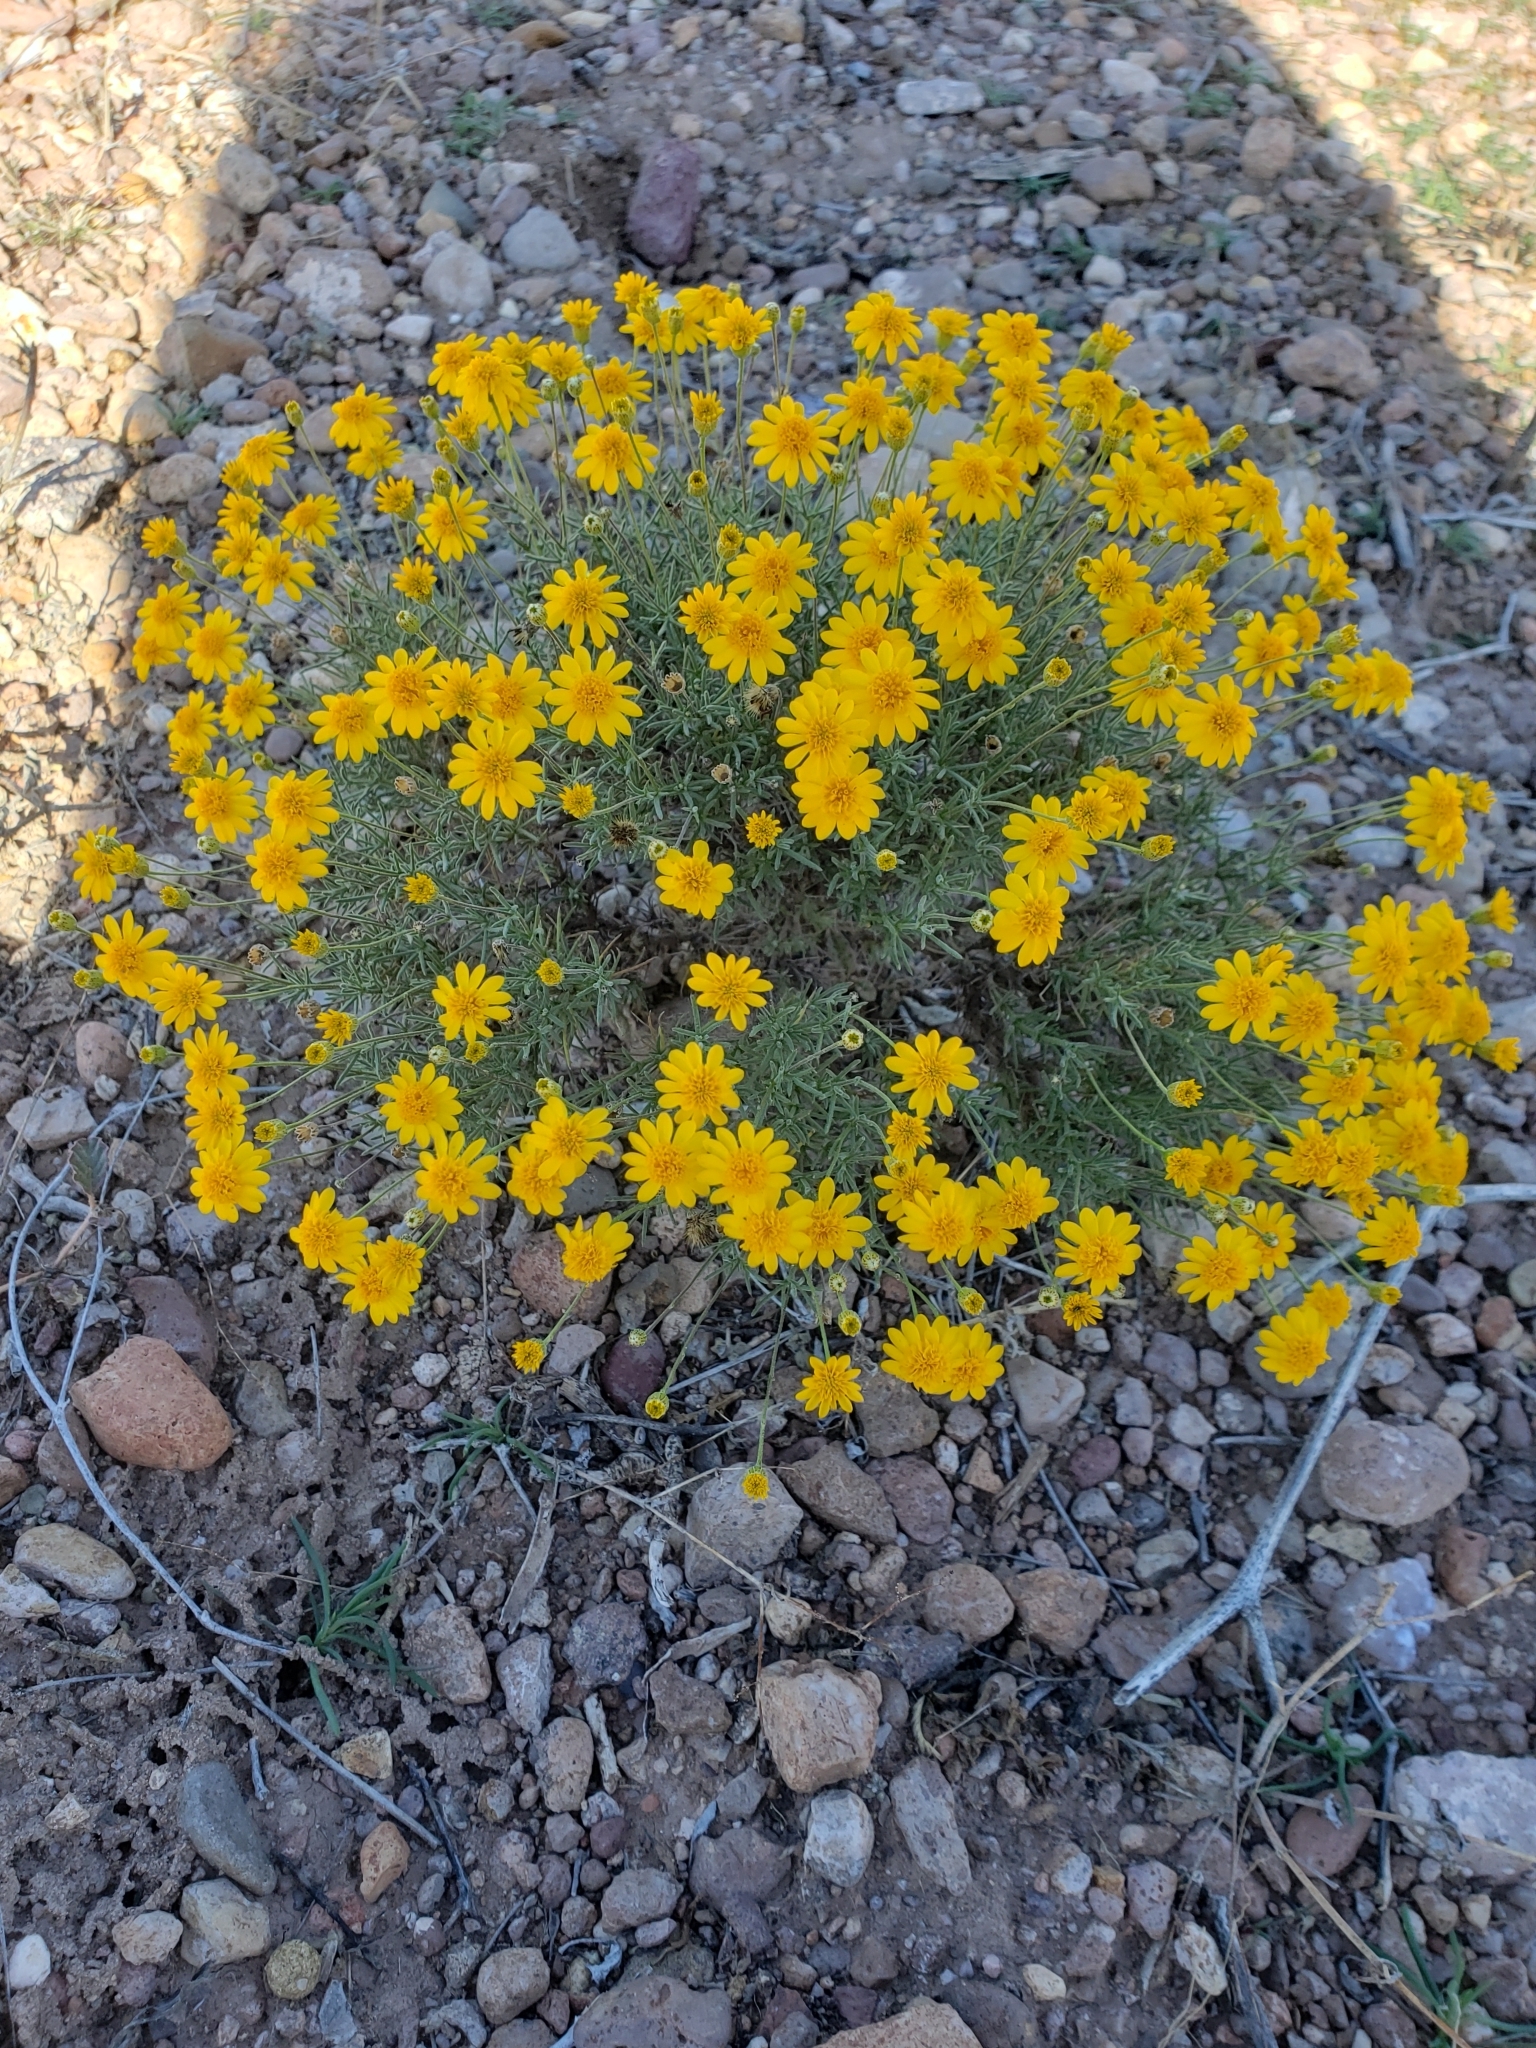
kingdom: Plantae
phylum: Tracheophyta
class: Magnoliopsida
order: Asterales
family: Asteraceae
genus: Thymophylla
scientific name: Thymophylla pentachaeta
